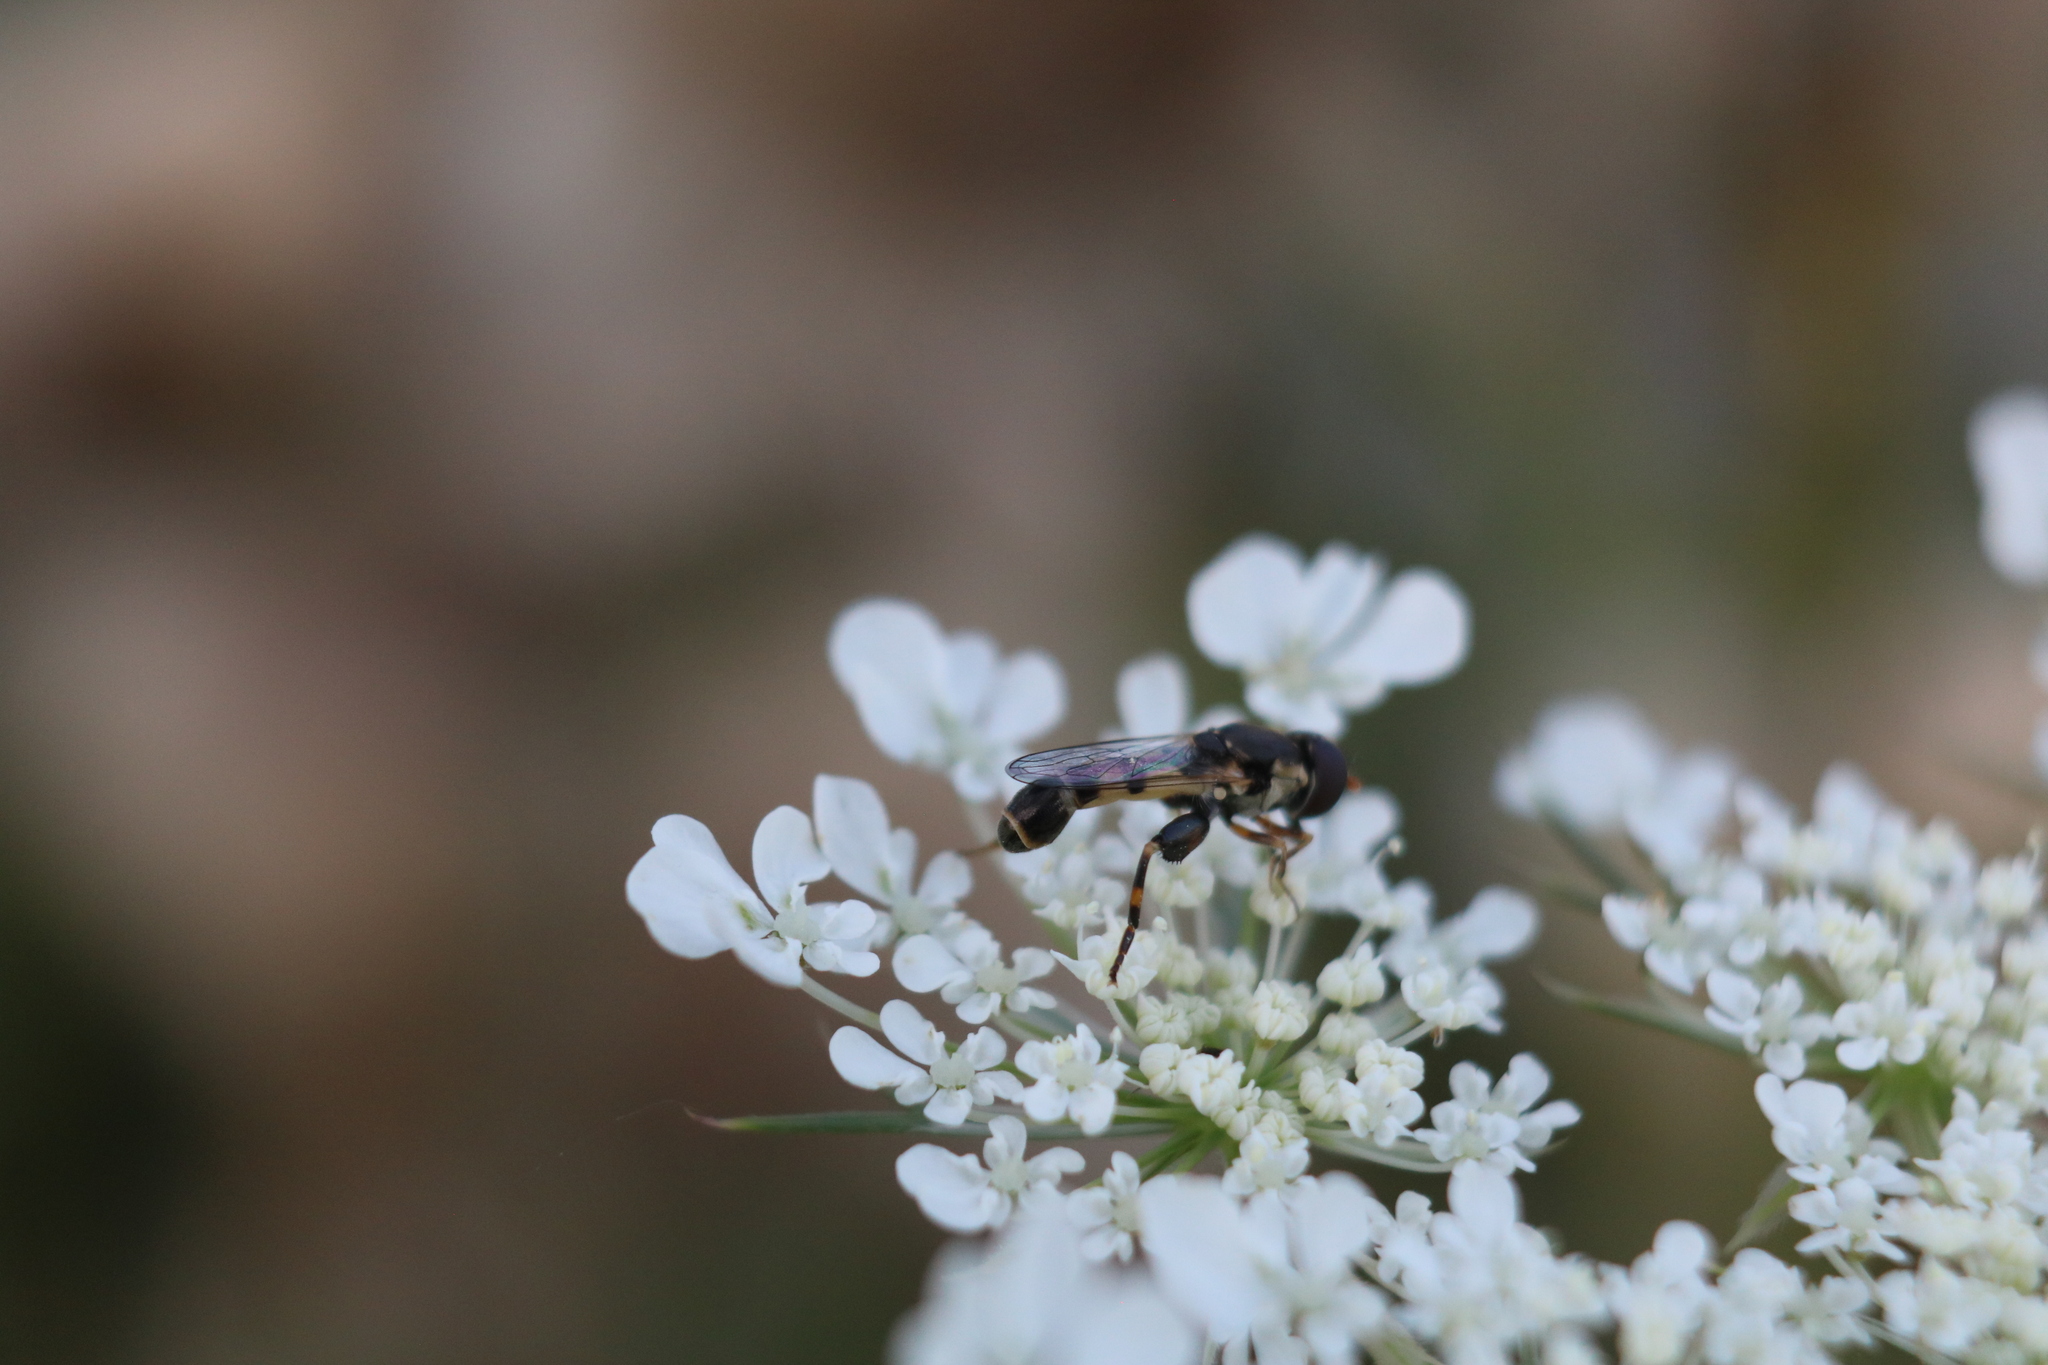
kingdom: Animalia
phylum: Arthropoda
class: Insecta
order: Diptera
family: Syrphidae
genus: Syritta
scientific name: Syritta pipiens
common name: Hover fly
